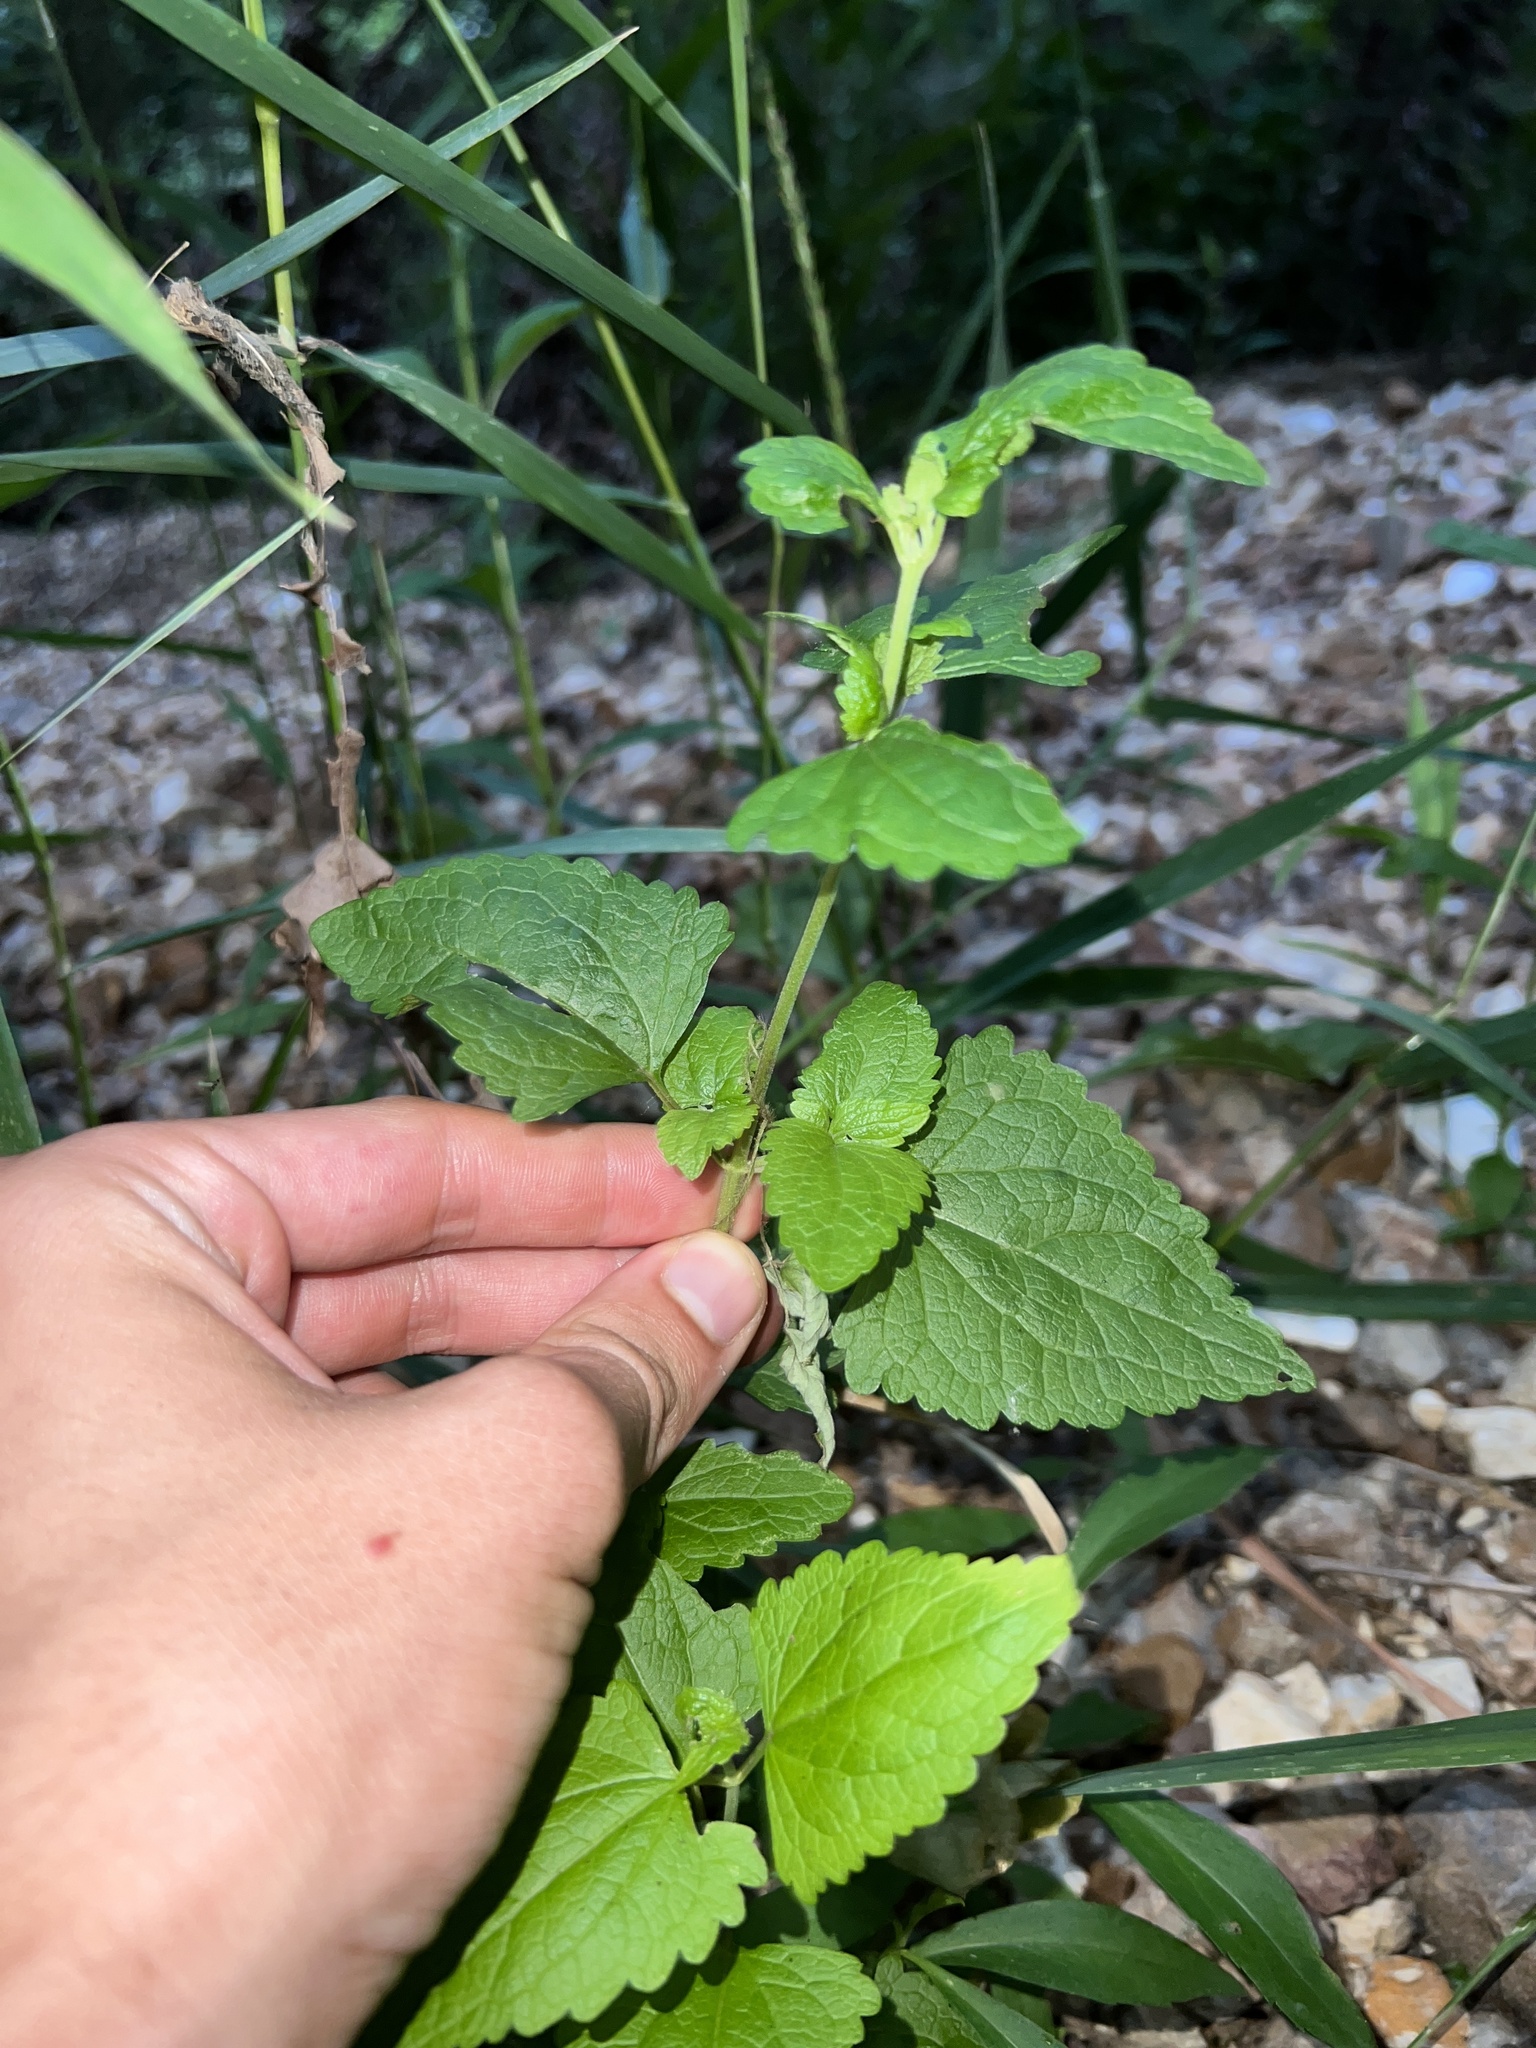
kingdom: Plantae
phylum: Tracheophyta
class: Magnoliopsida
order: Asterales
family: Asteraceae
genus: Conoclinium
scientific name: Conoclinium coelestinum
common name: Blue mistflower
